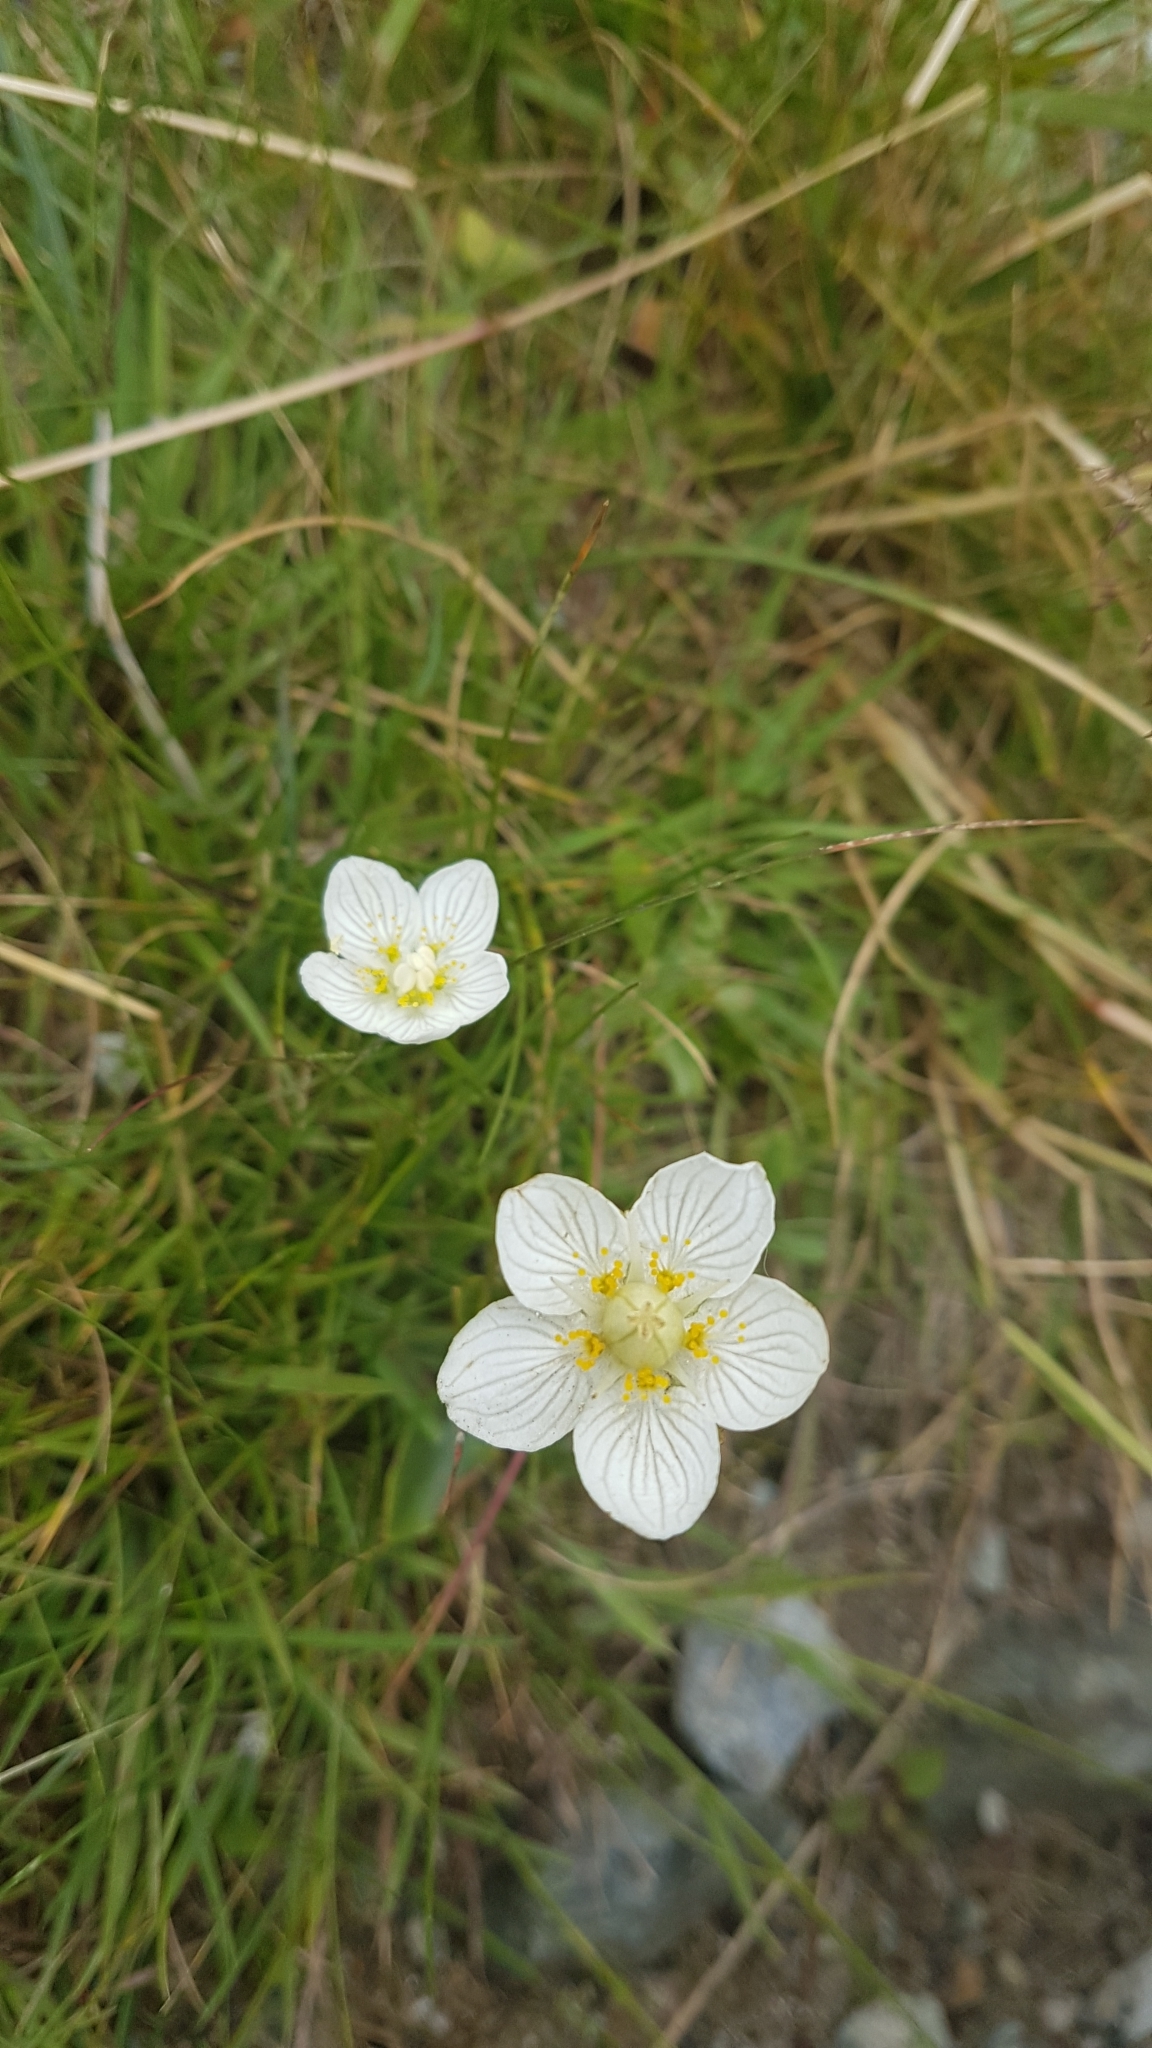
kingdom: Plantae
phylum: Tracheophyta
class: Magnoliopsida
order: Celastrales
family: Parnassiaceae
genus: Parnassia
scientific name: Parnassia palustris
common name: Grass-of-parnassus
